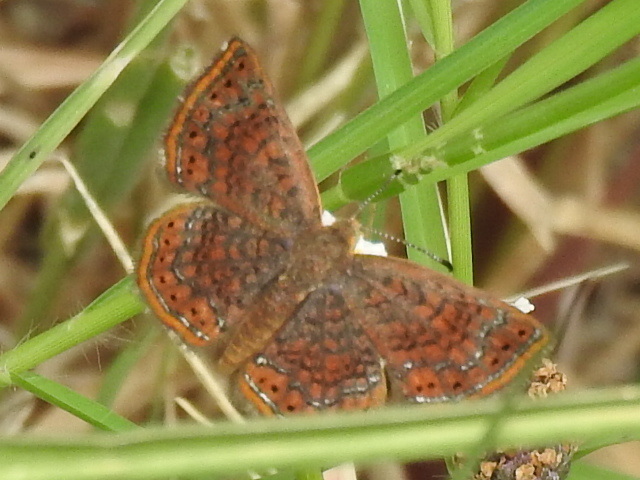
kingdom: Animalia
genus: Calephelis
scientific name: Calephelis perditalis
